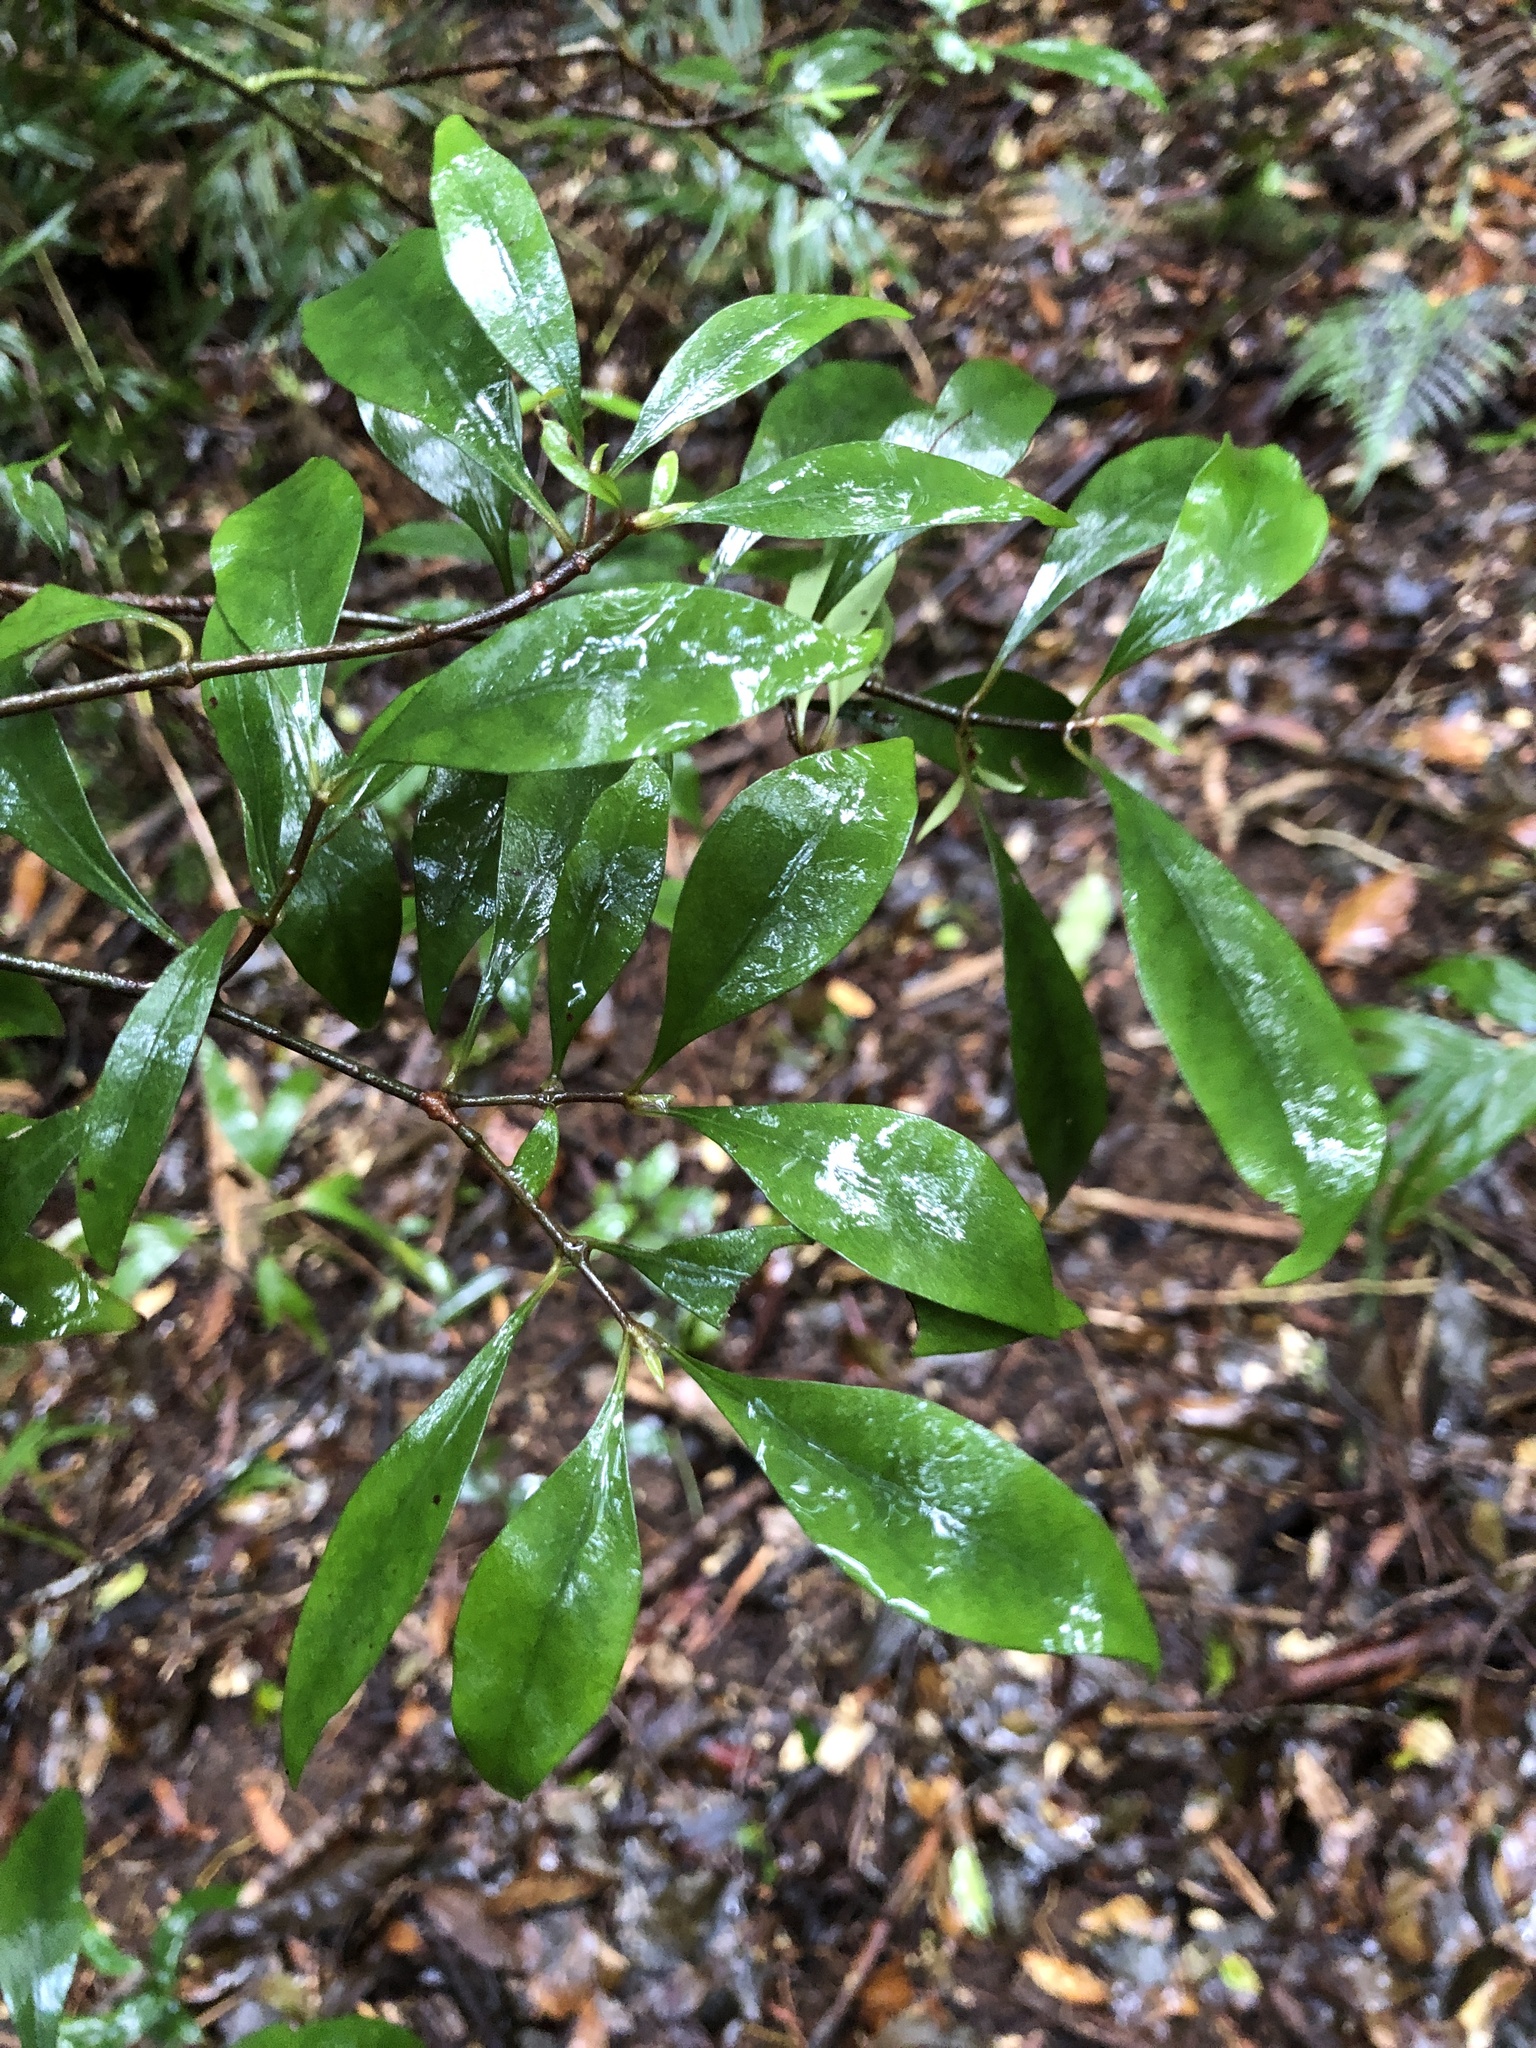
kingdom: Plantae
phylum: Tracheophyta
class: Magnoliopsida
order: Gentianales
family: Rubiaceae
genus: Psychotria
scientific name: Psychotria simmondsiana
